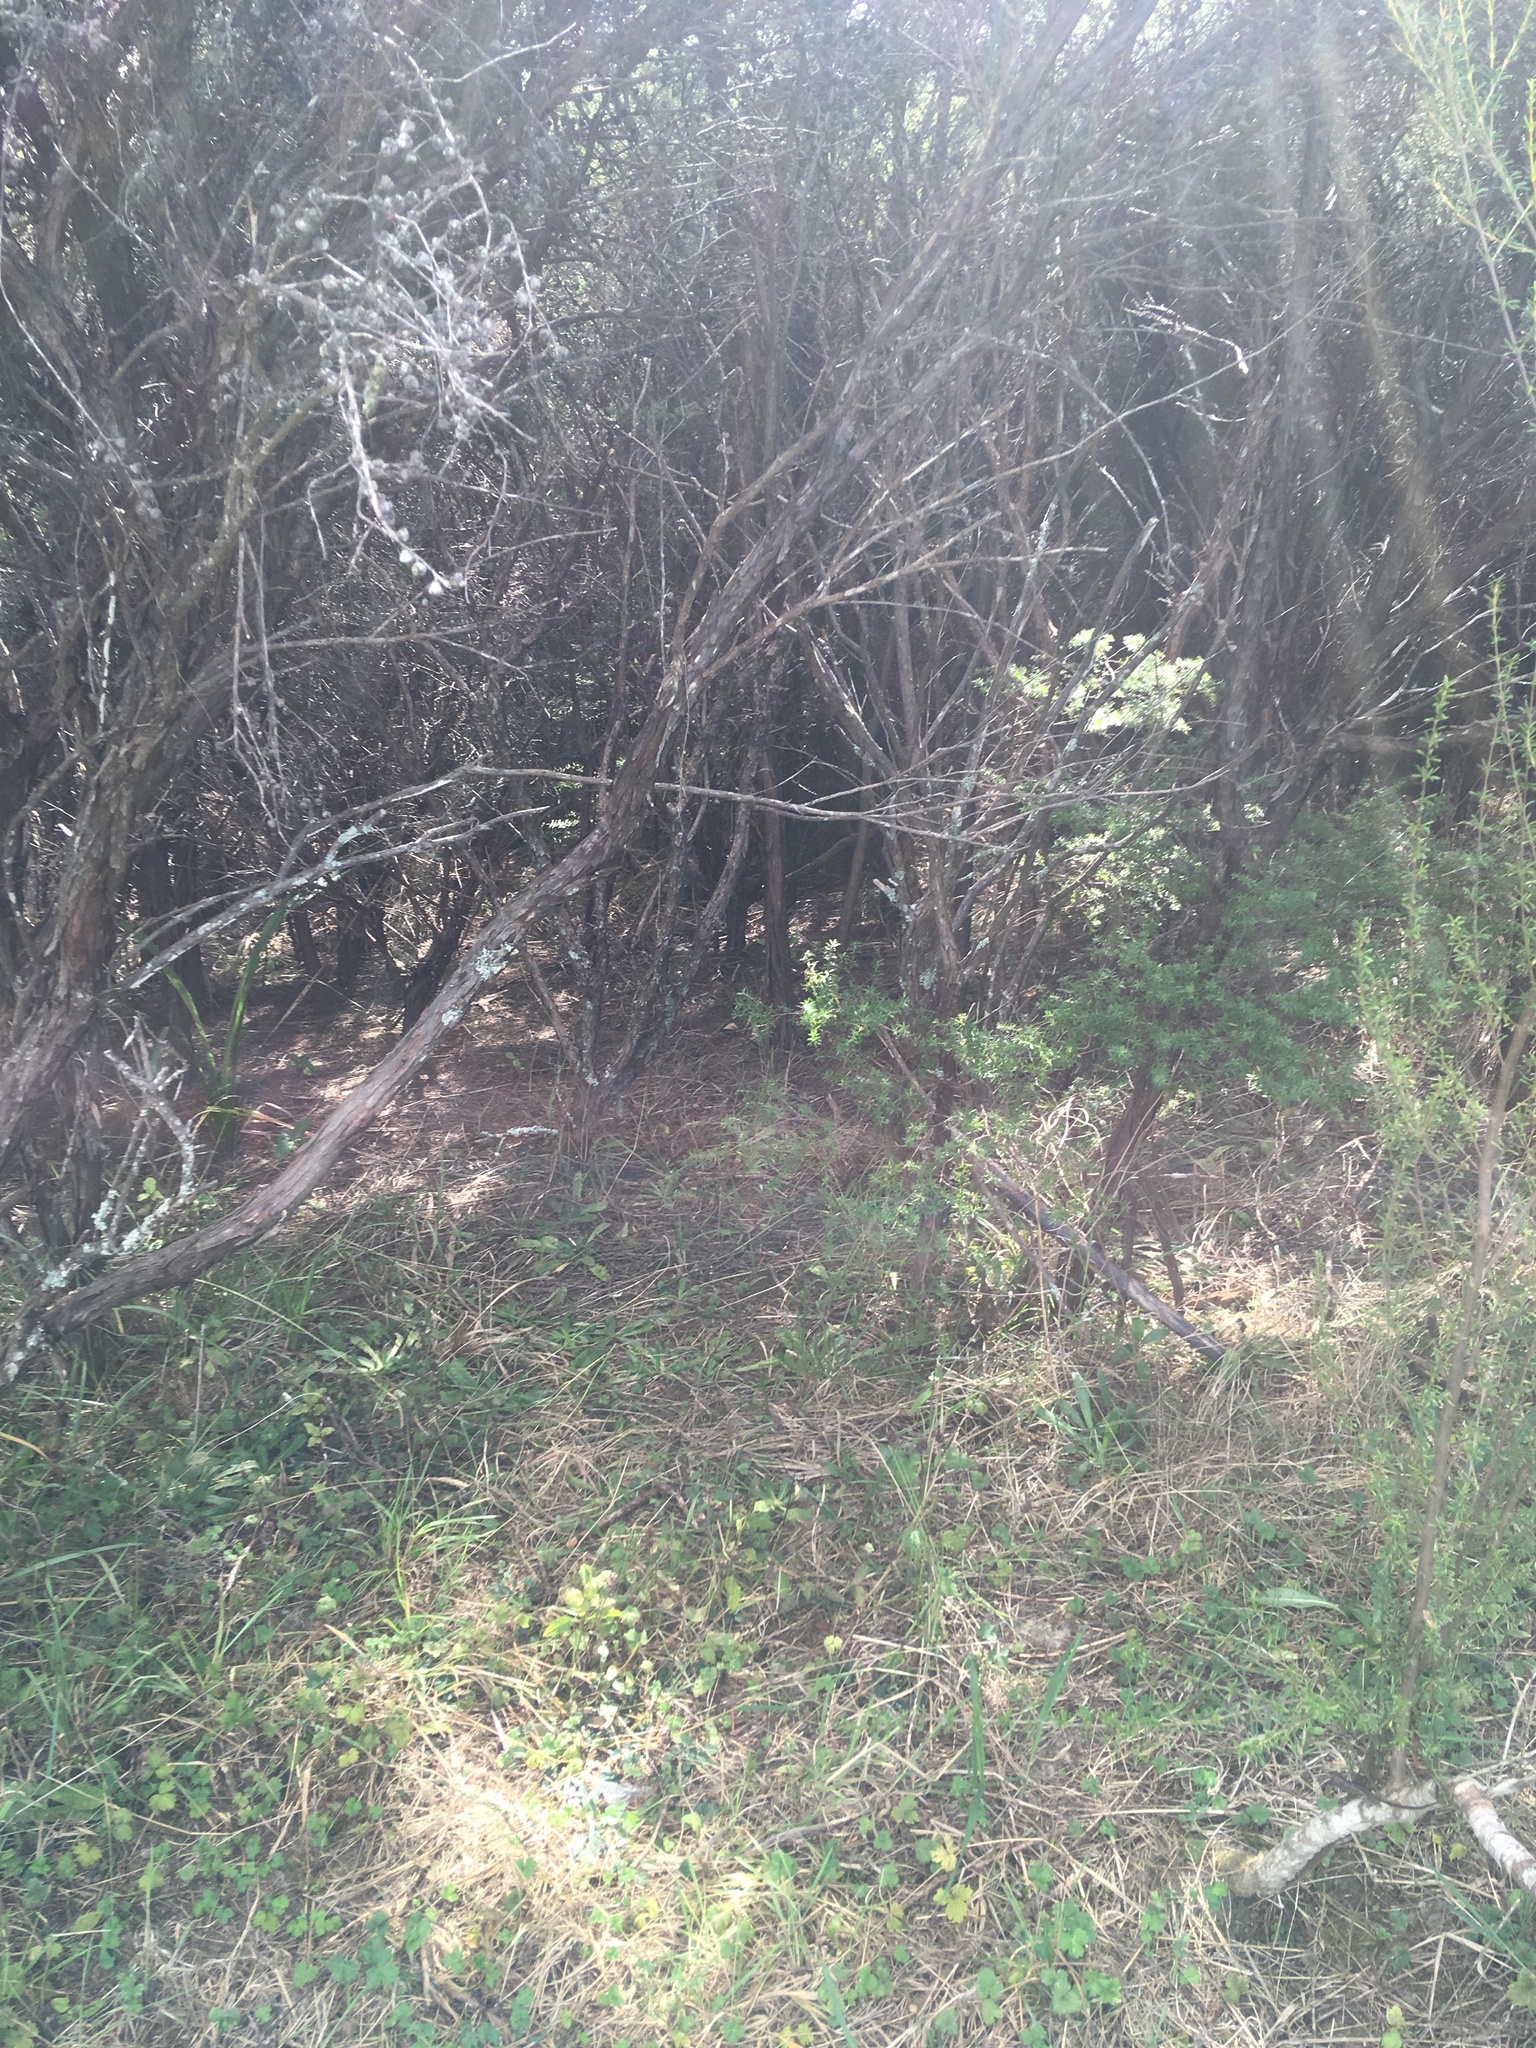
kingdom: Plantae
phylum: Tracheophyta
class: Magnoliopsida
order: Myrtales
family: Myrtaceae
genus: Leptospermum
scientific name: Leptospermum scoparium
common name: Broom tea-tree
